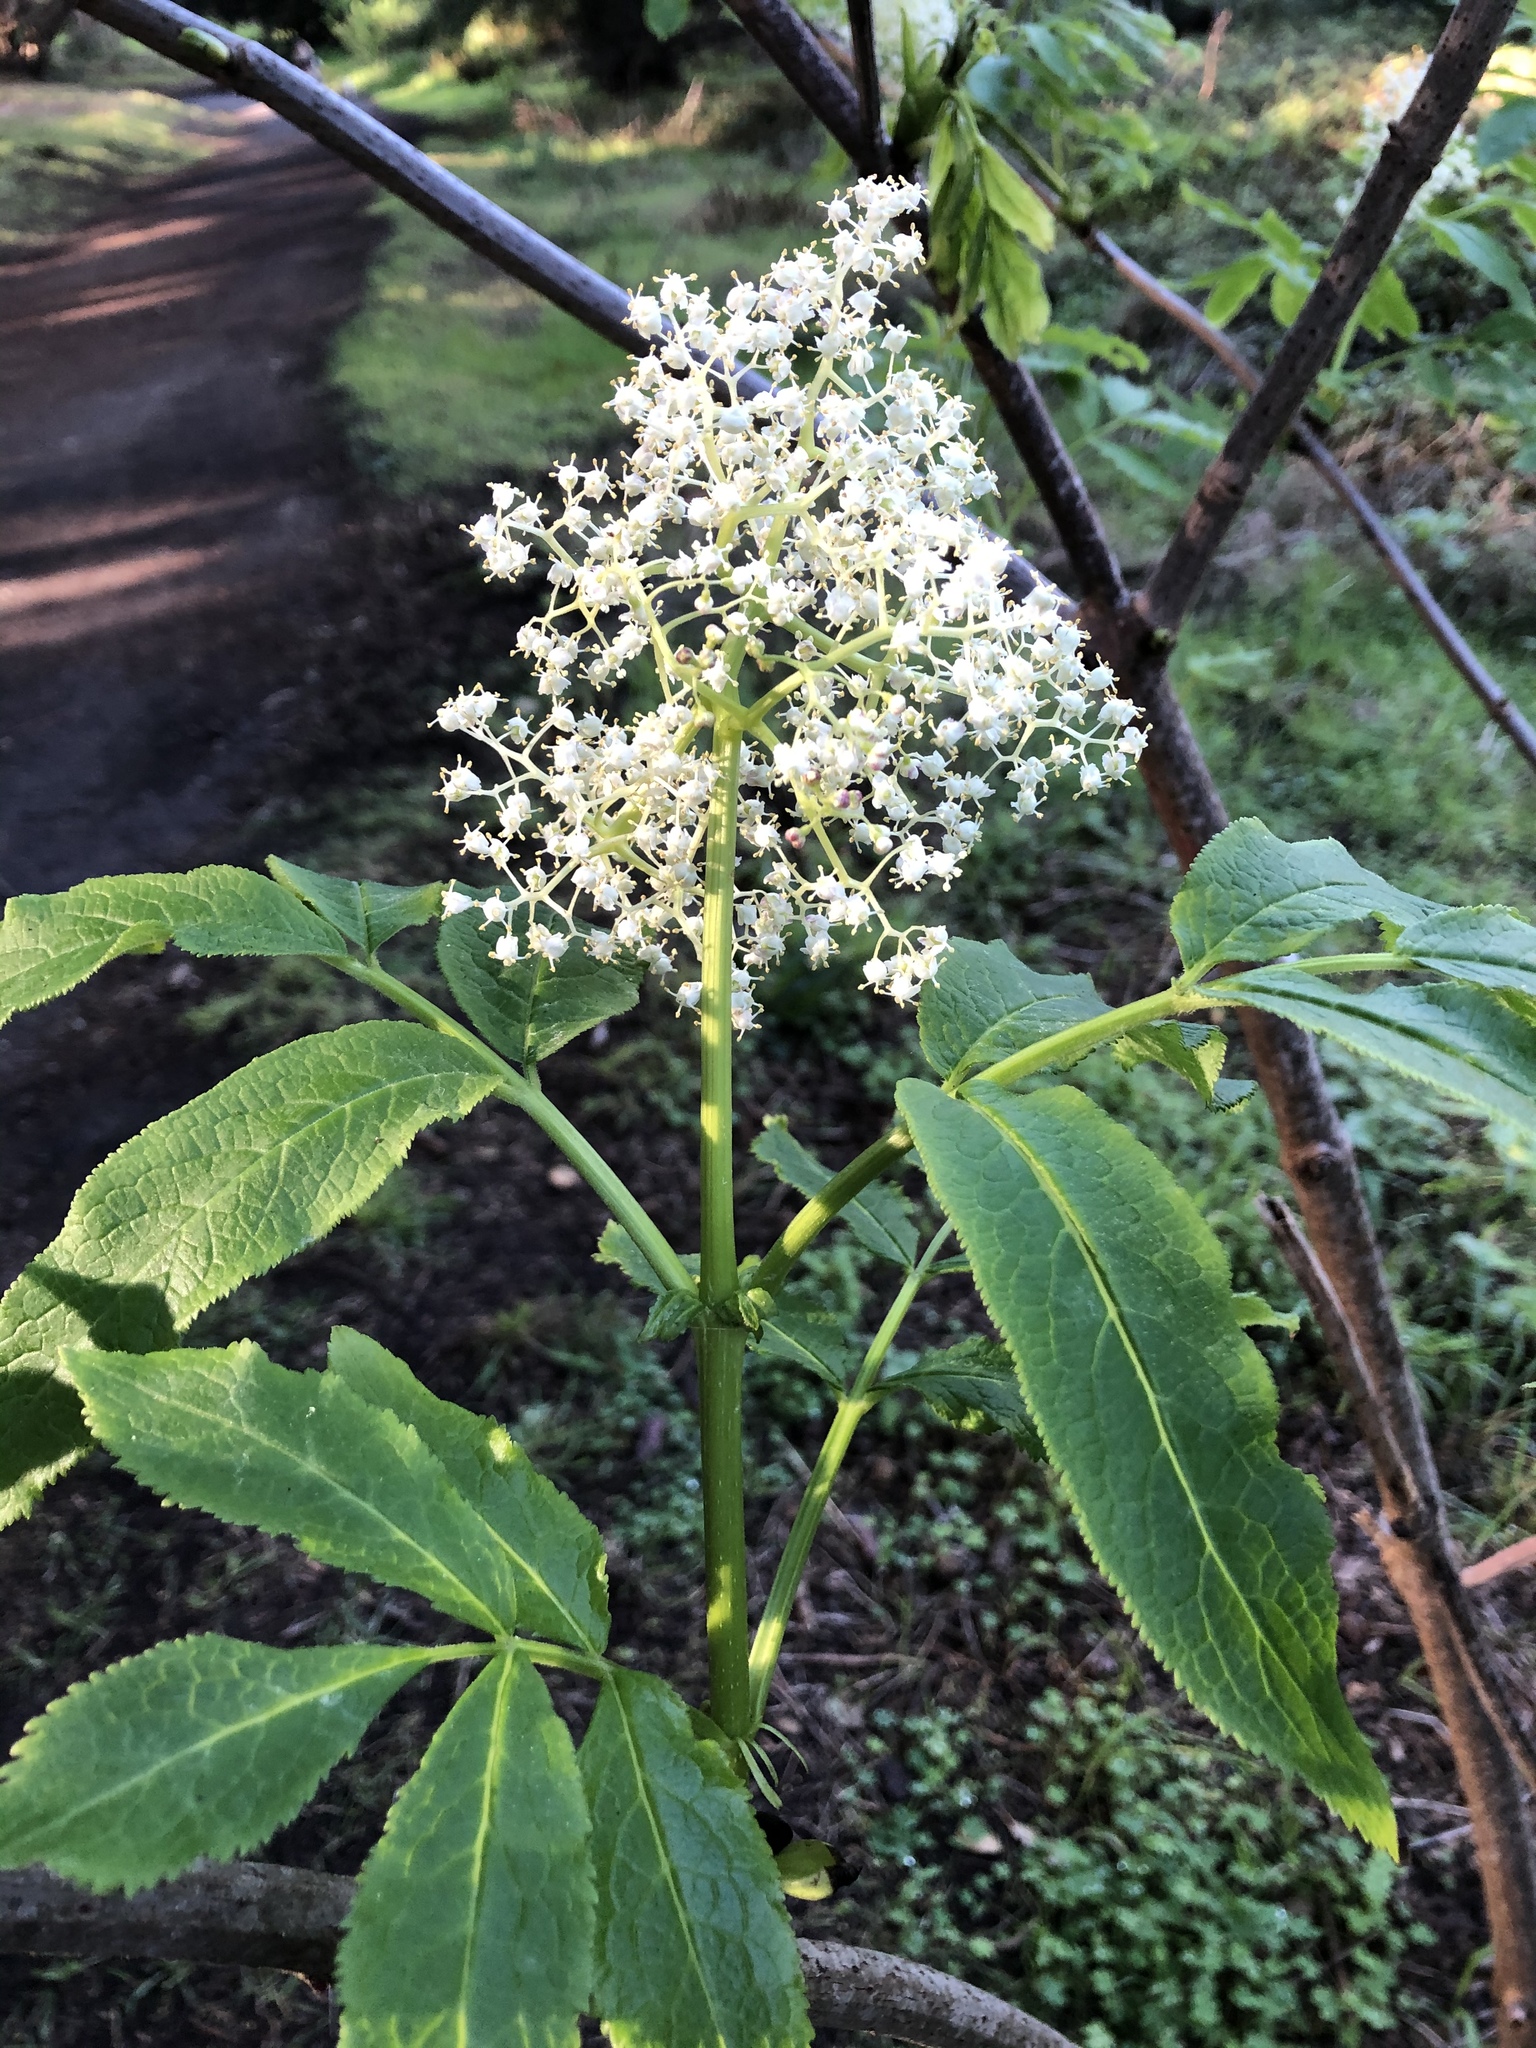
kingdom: Plantae
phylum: Tracheophyta
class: Magnoliopsida
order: Dipsacales
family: Viburnaceae
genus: Sambucus
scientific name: Sambucus racemosa
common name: Red-berried elder
